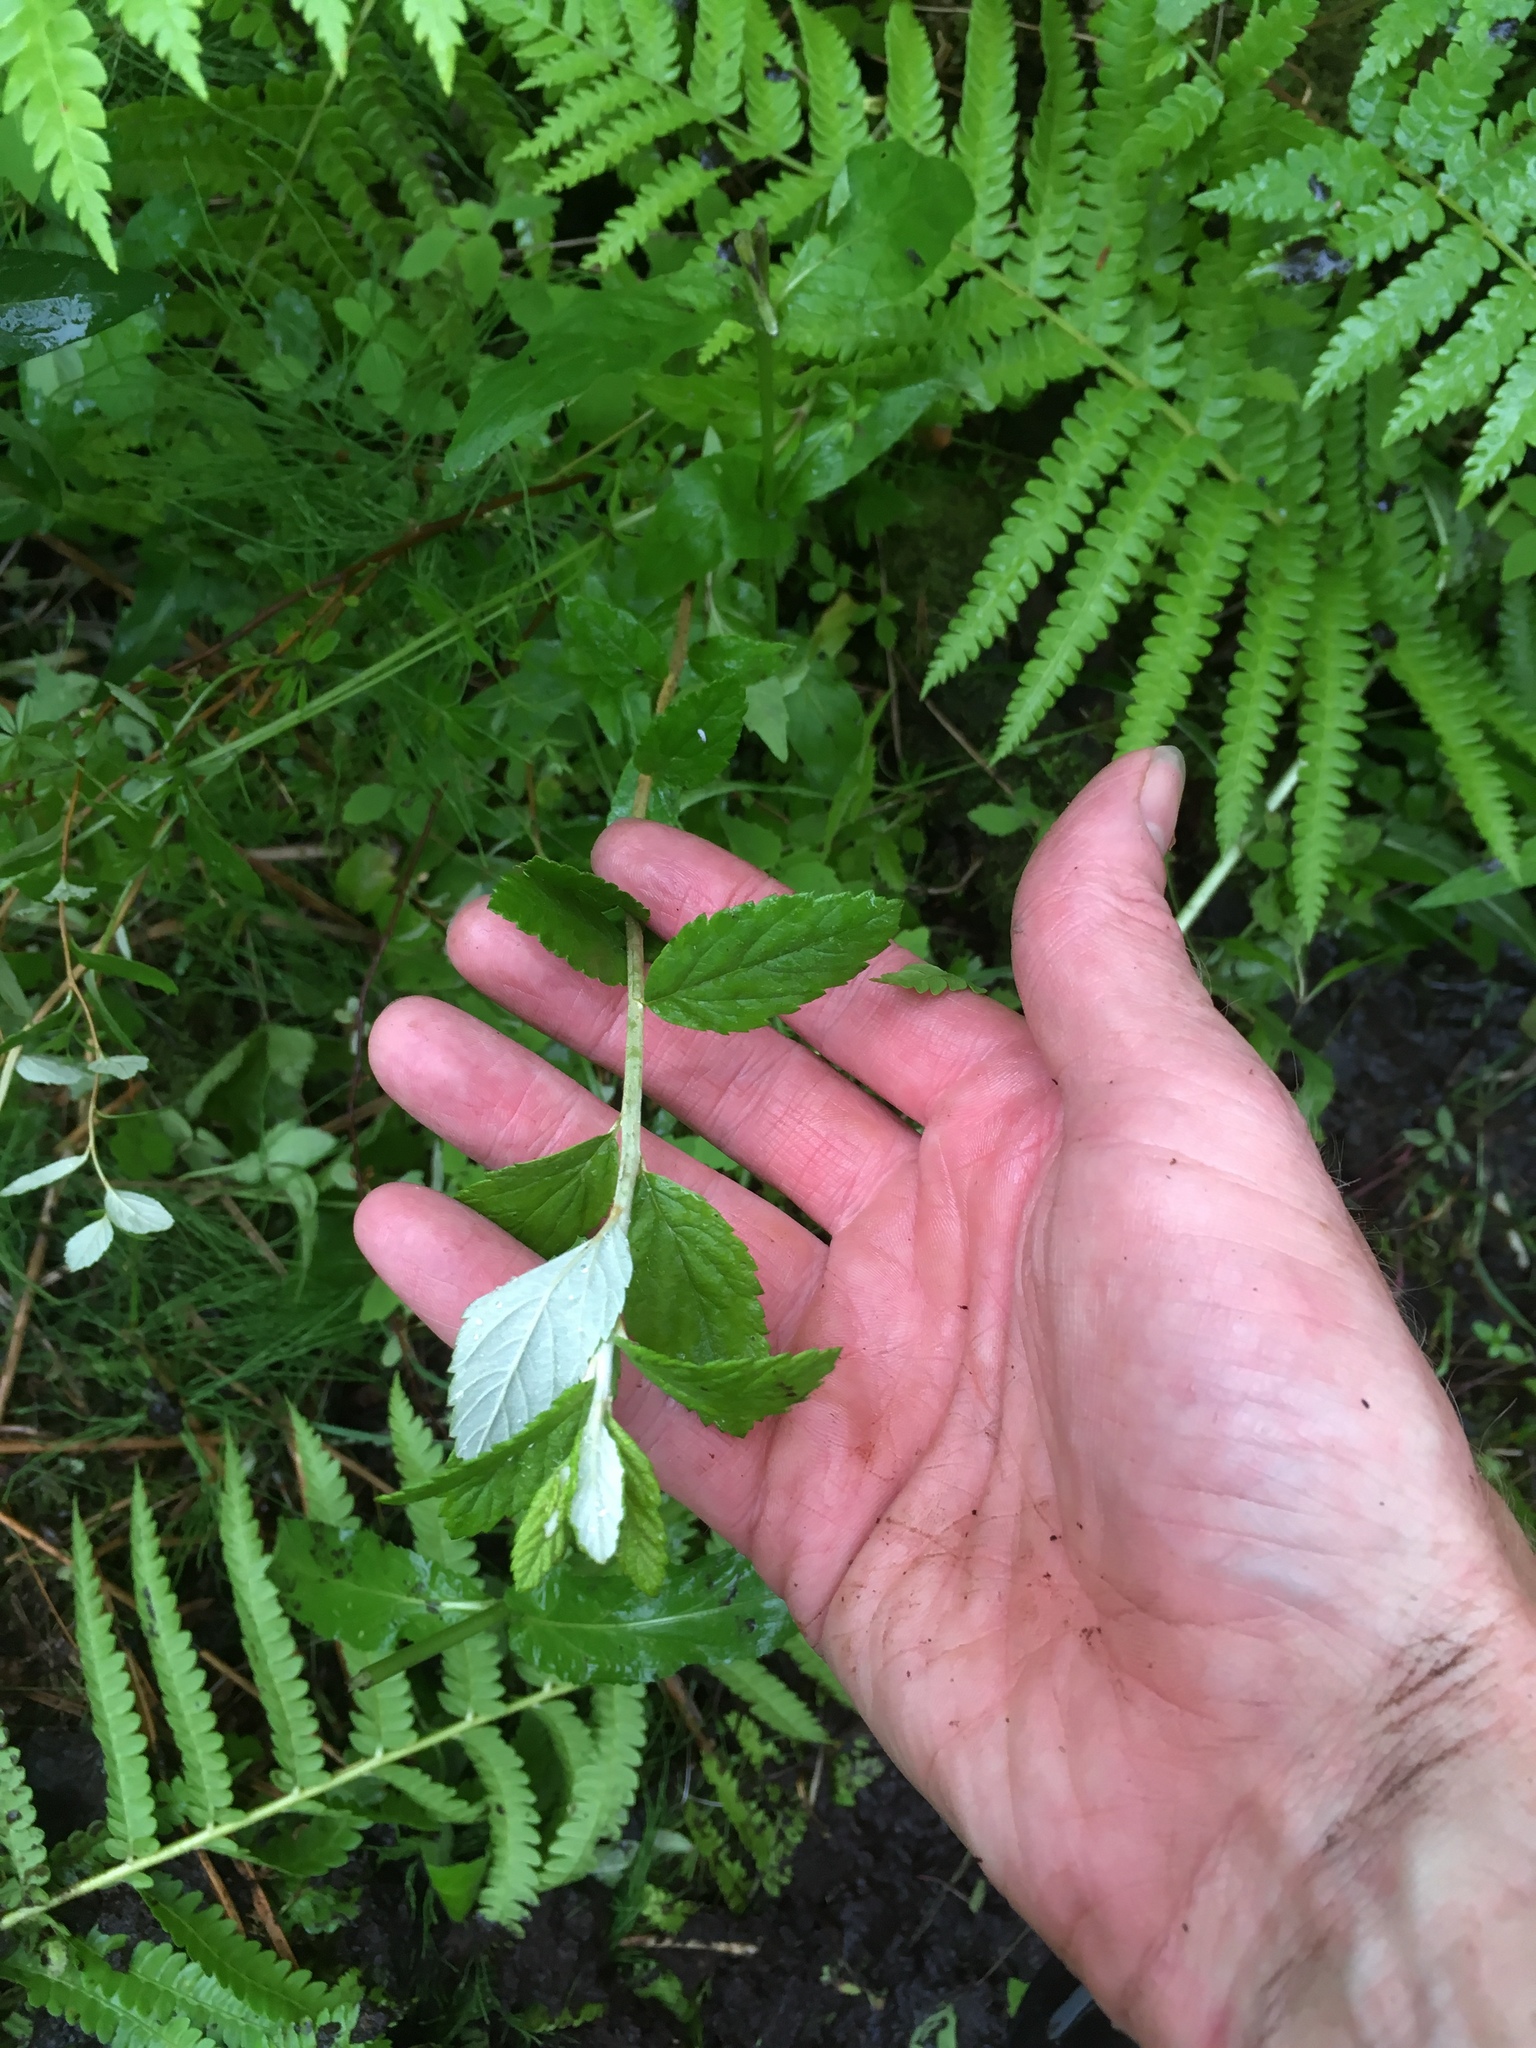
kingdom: Plantae
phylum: Tracheophyta
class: Magnoliopsida
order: Rosales
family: Rosaceae
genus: Spiraea
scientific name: Spiraea tomentosa
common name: Hardhack
